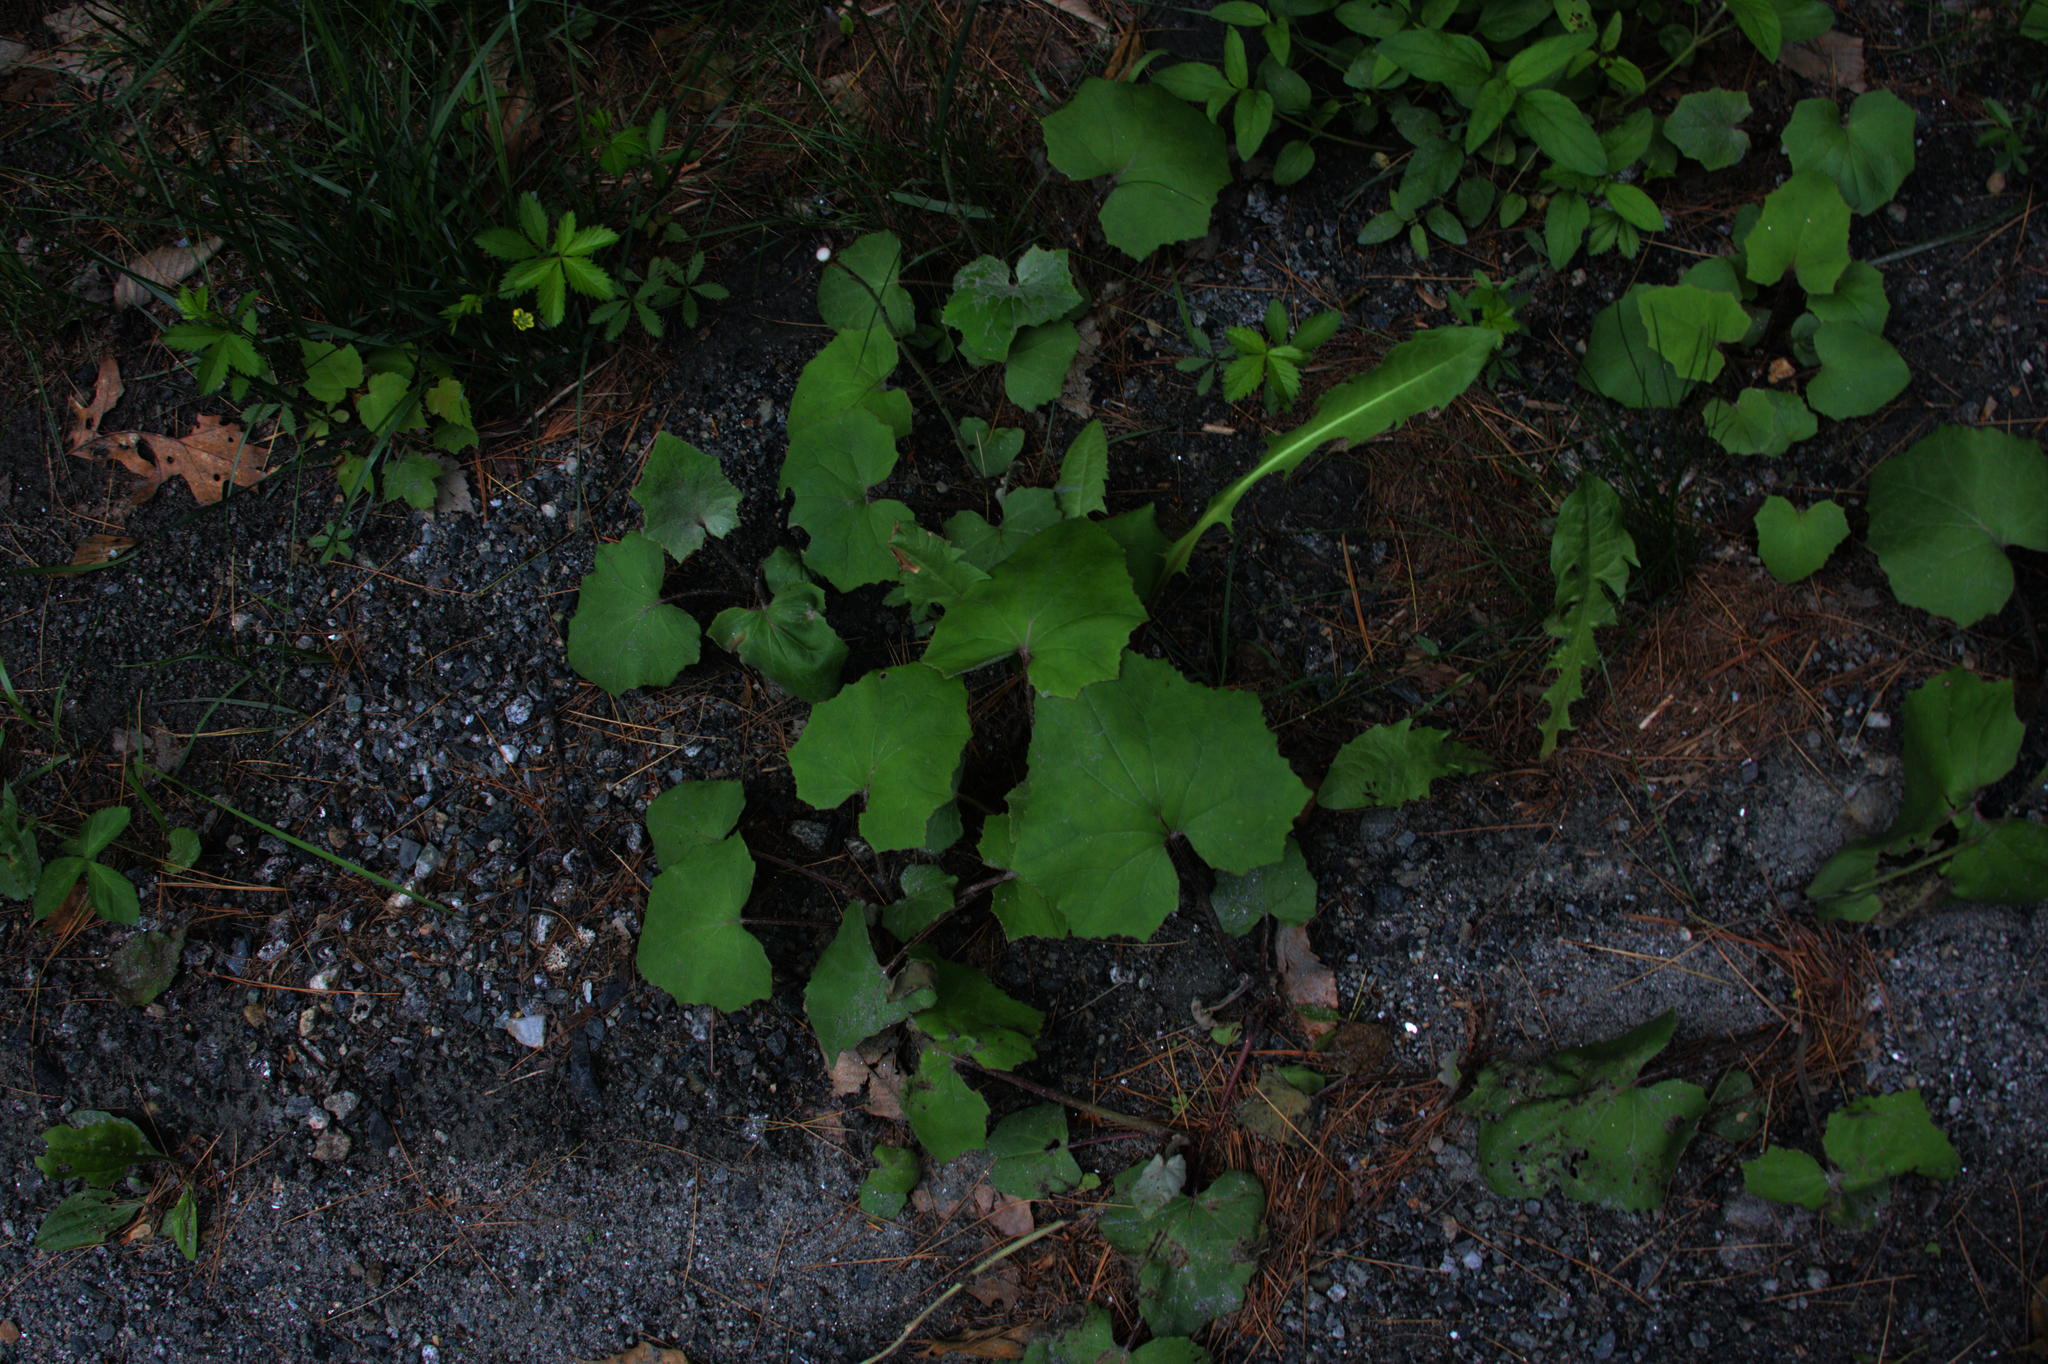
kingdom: Plantae
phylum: Tracheophyta
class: Magnoliopsida
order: Asterales
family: Asteraceae
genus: Tussilago
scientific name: Tussilago farfara
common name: Coltsfoot
